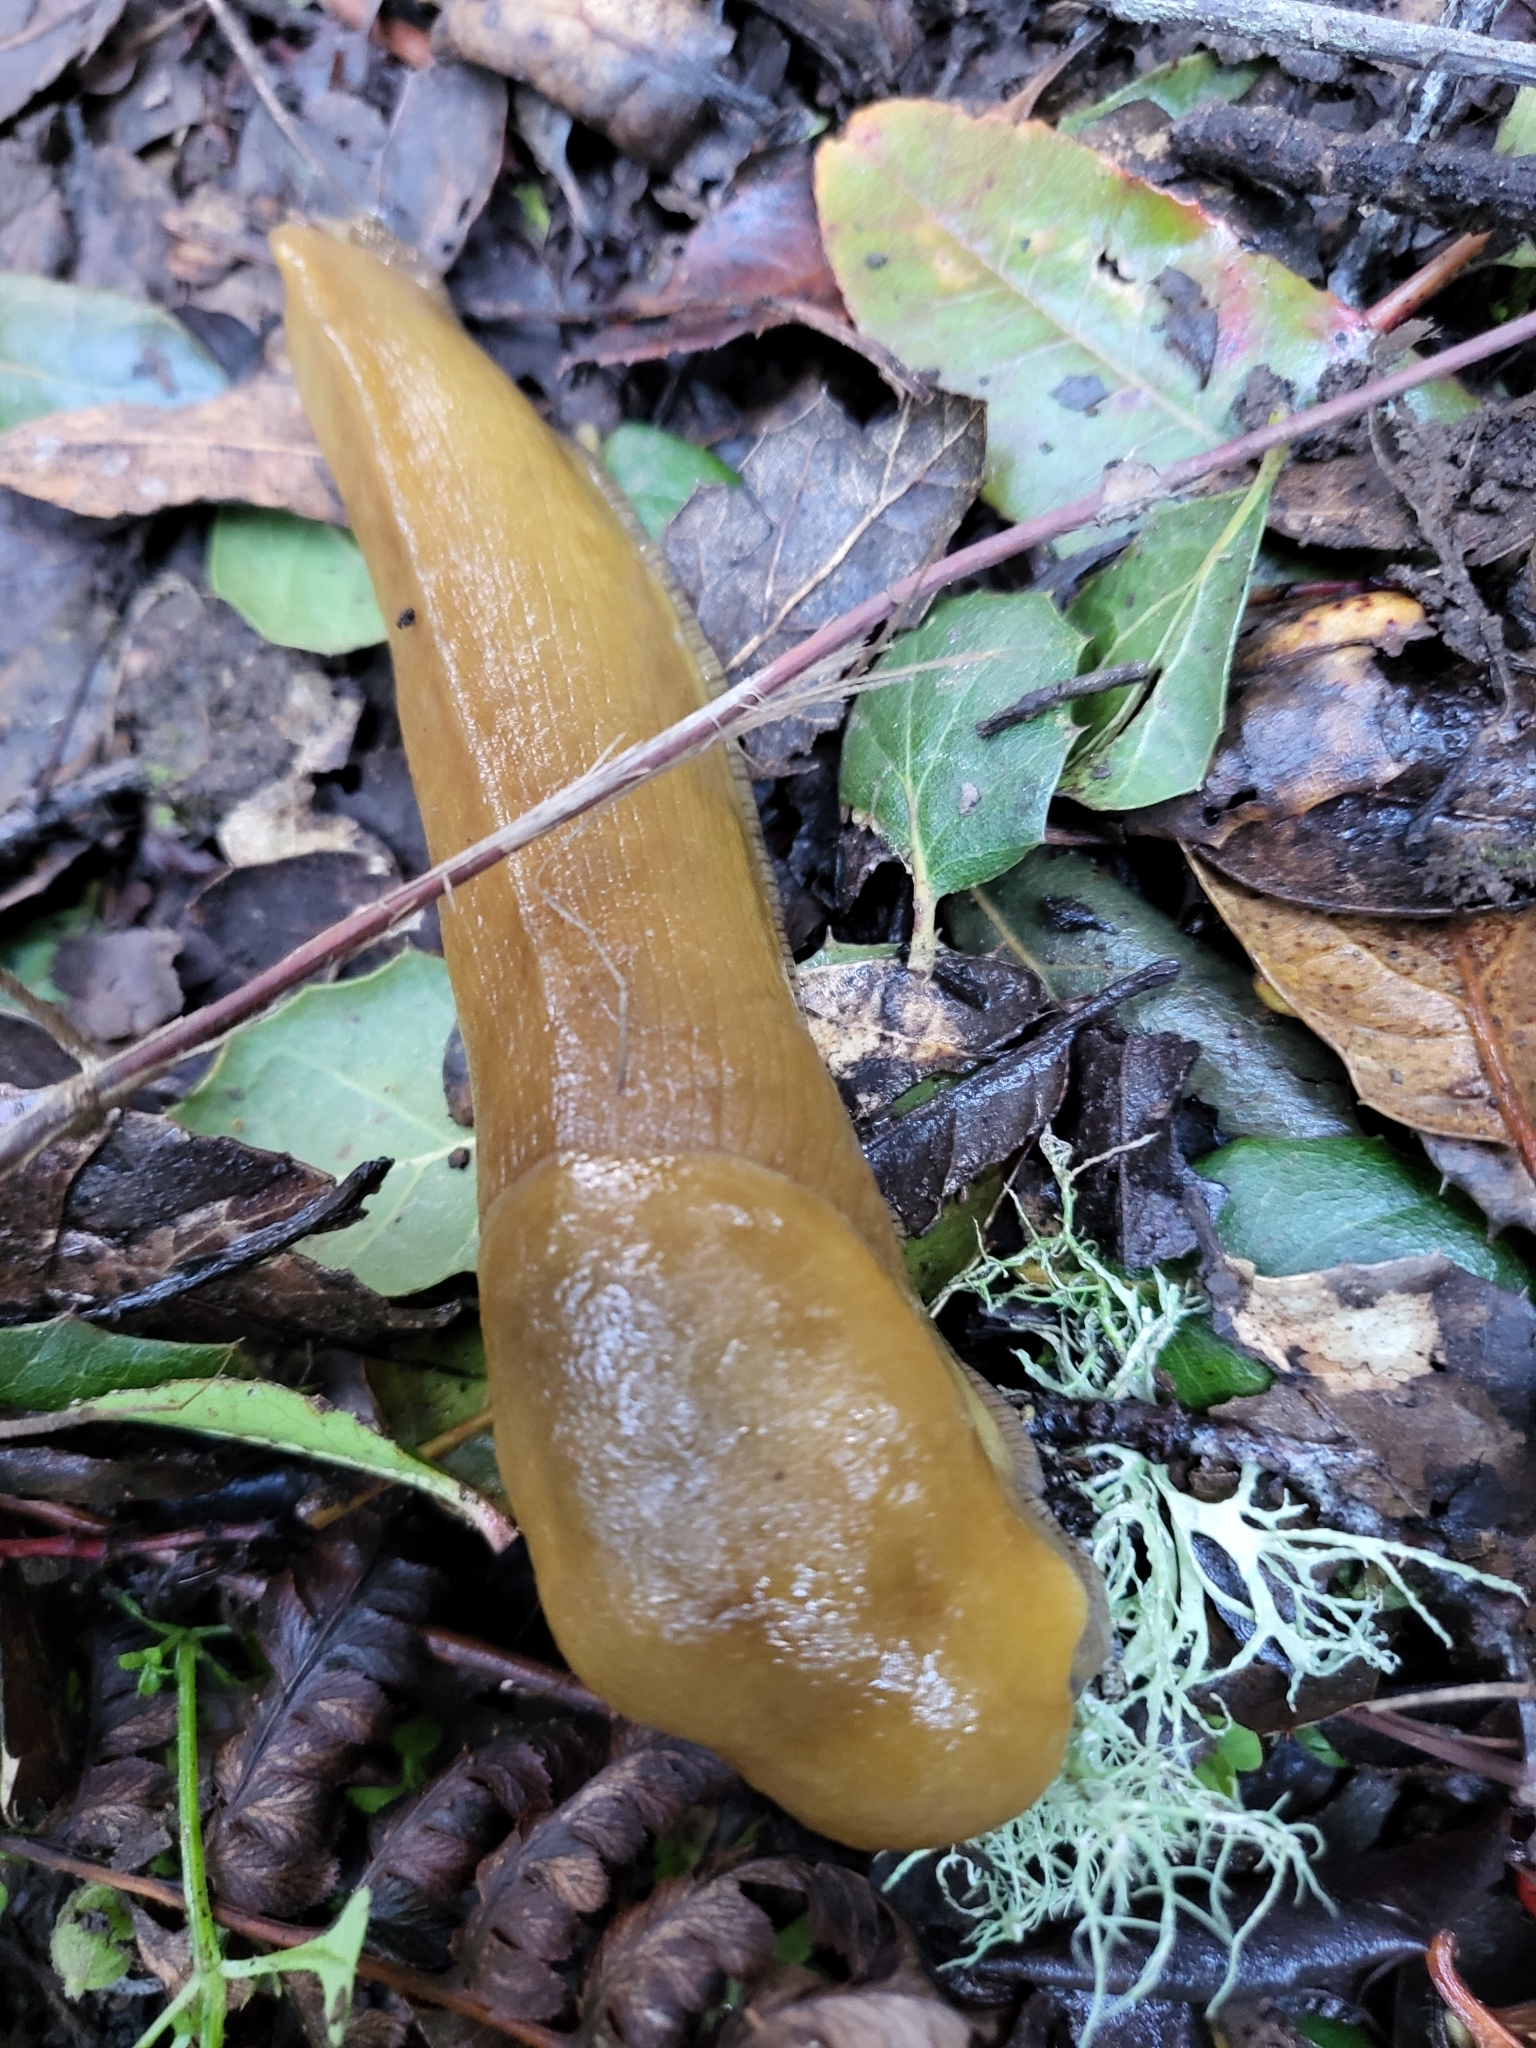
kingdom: Animalia
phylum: Mollusca
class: Gastropoda
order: Stylommatophora
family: Ariolimacidae
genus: Ariolimax
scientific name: Ariolimax brachyphallus
